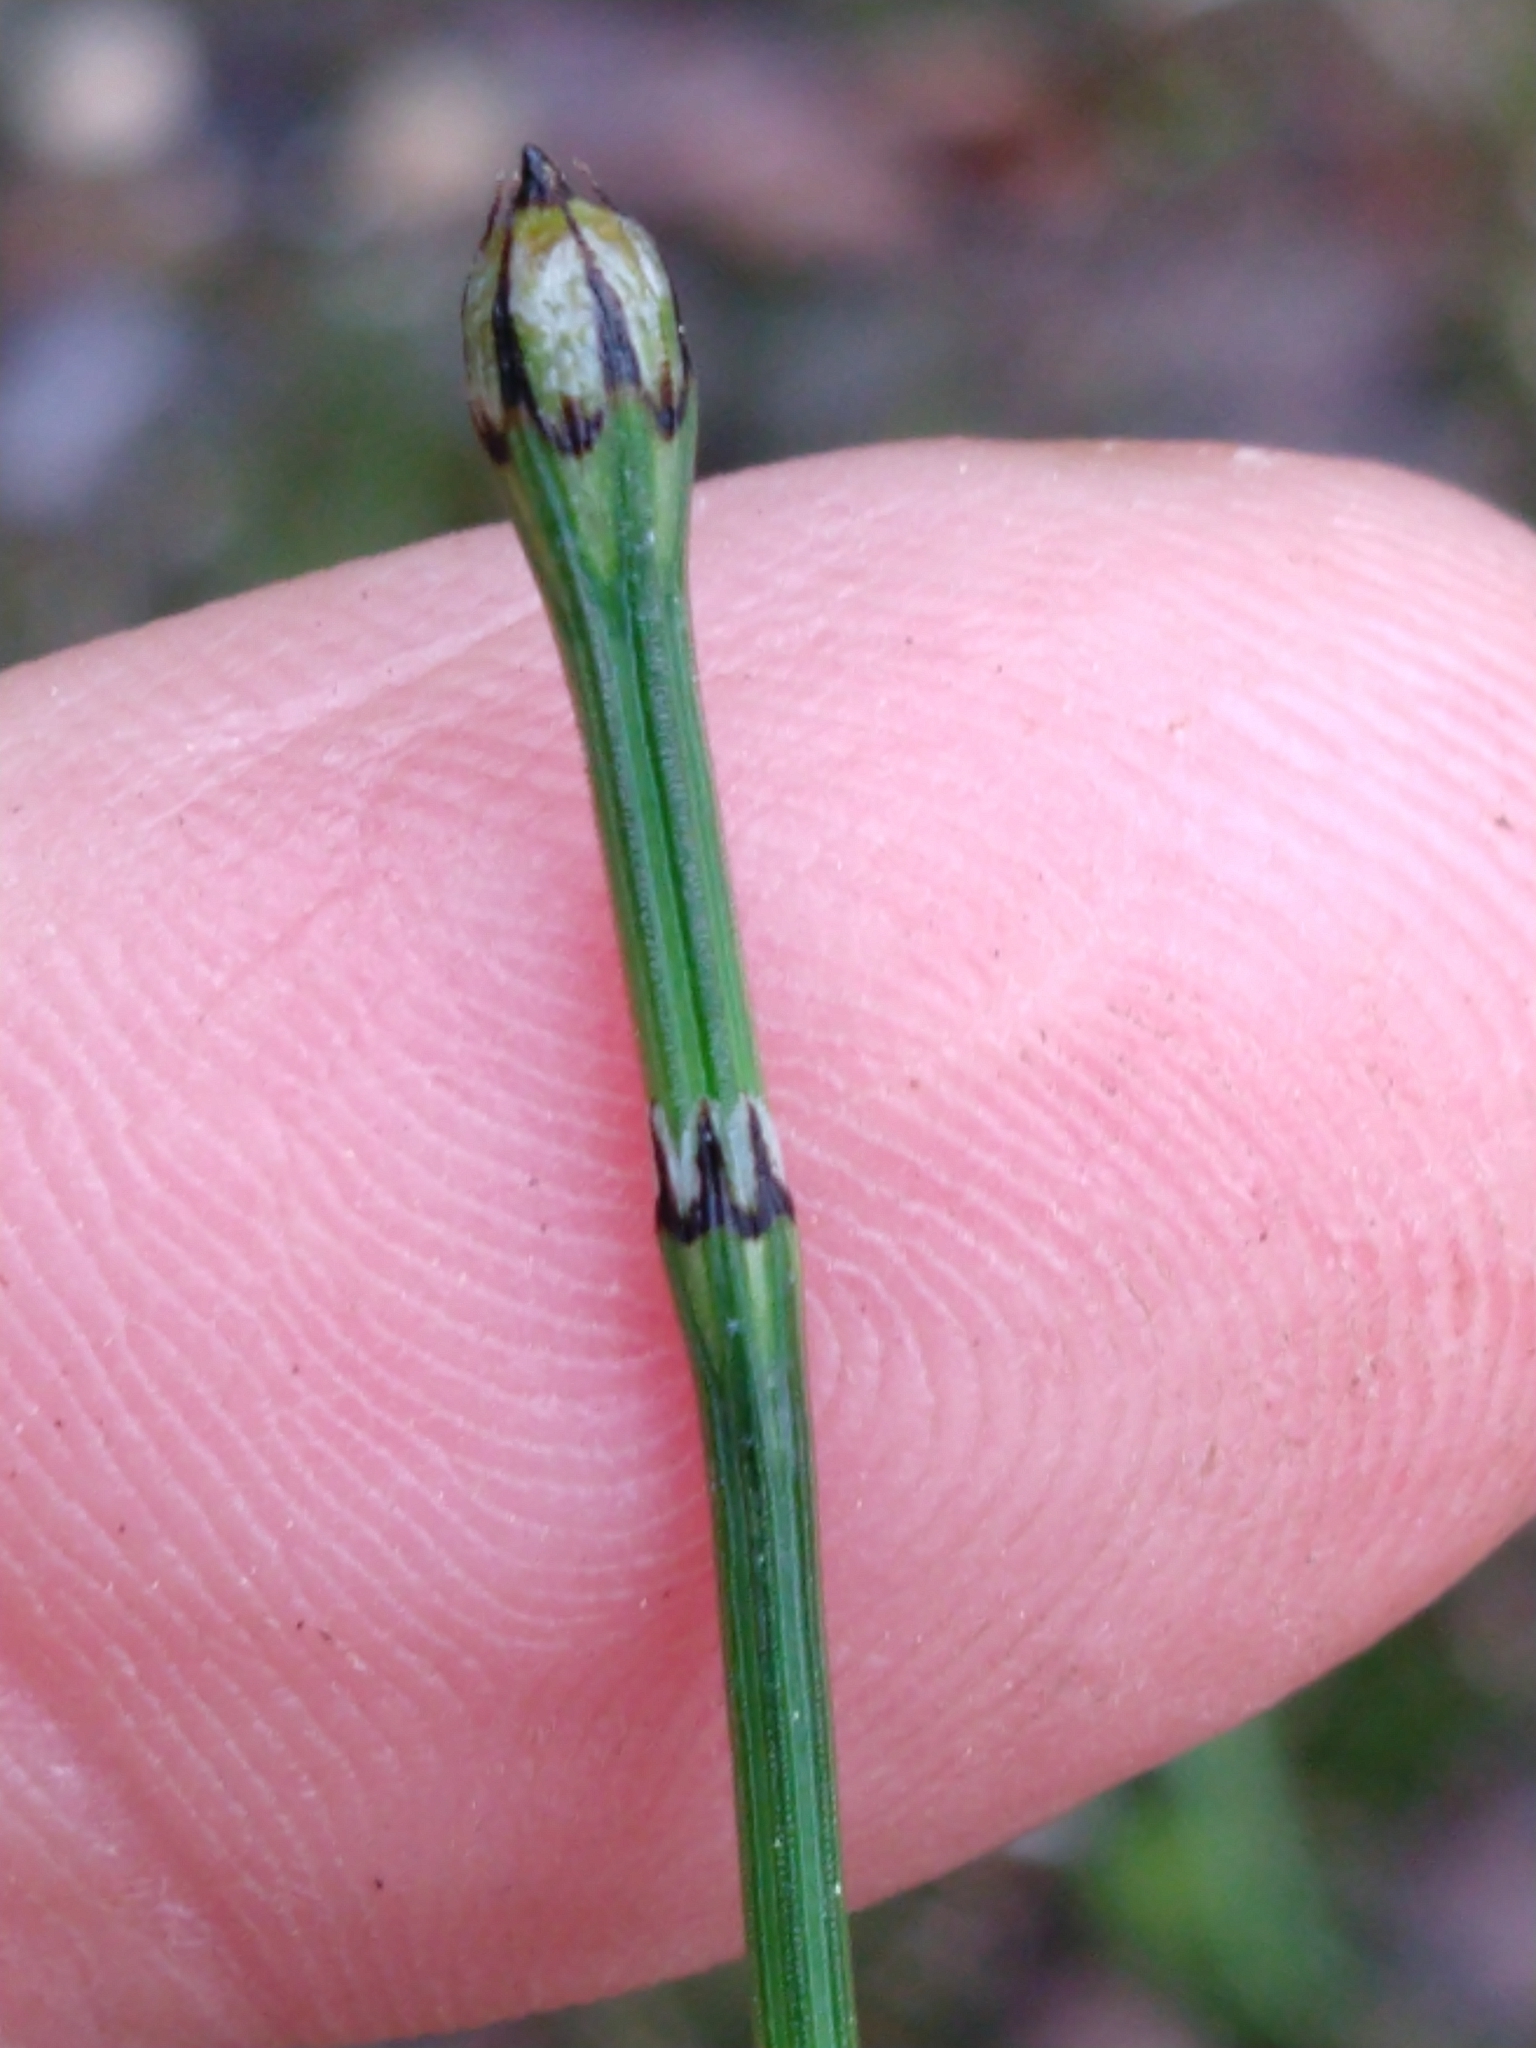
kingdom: Plantae
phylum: Tracheophyta
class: Polypodiopsida
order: Equisetales
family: Equisetaceae
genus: Equisetum
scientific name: Equisetum variegatum
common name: Variegated horsetail
